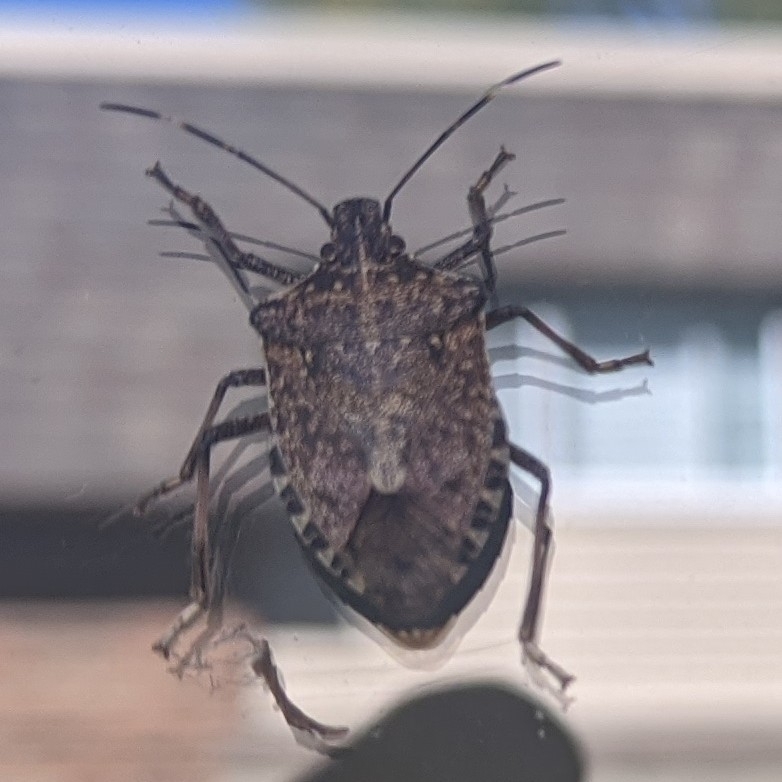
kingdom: Animalia
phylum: Arthropoda
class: Insecta
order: Hemiptera
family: Pentatomidae
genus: Halyomorpha
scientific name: Halyomorpha halys
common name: Brown marmorated stink bug
